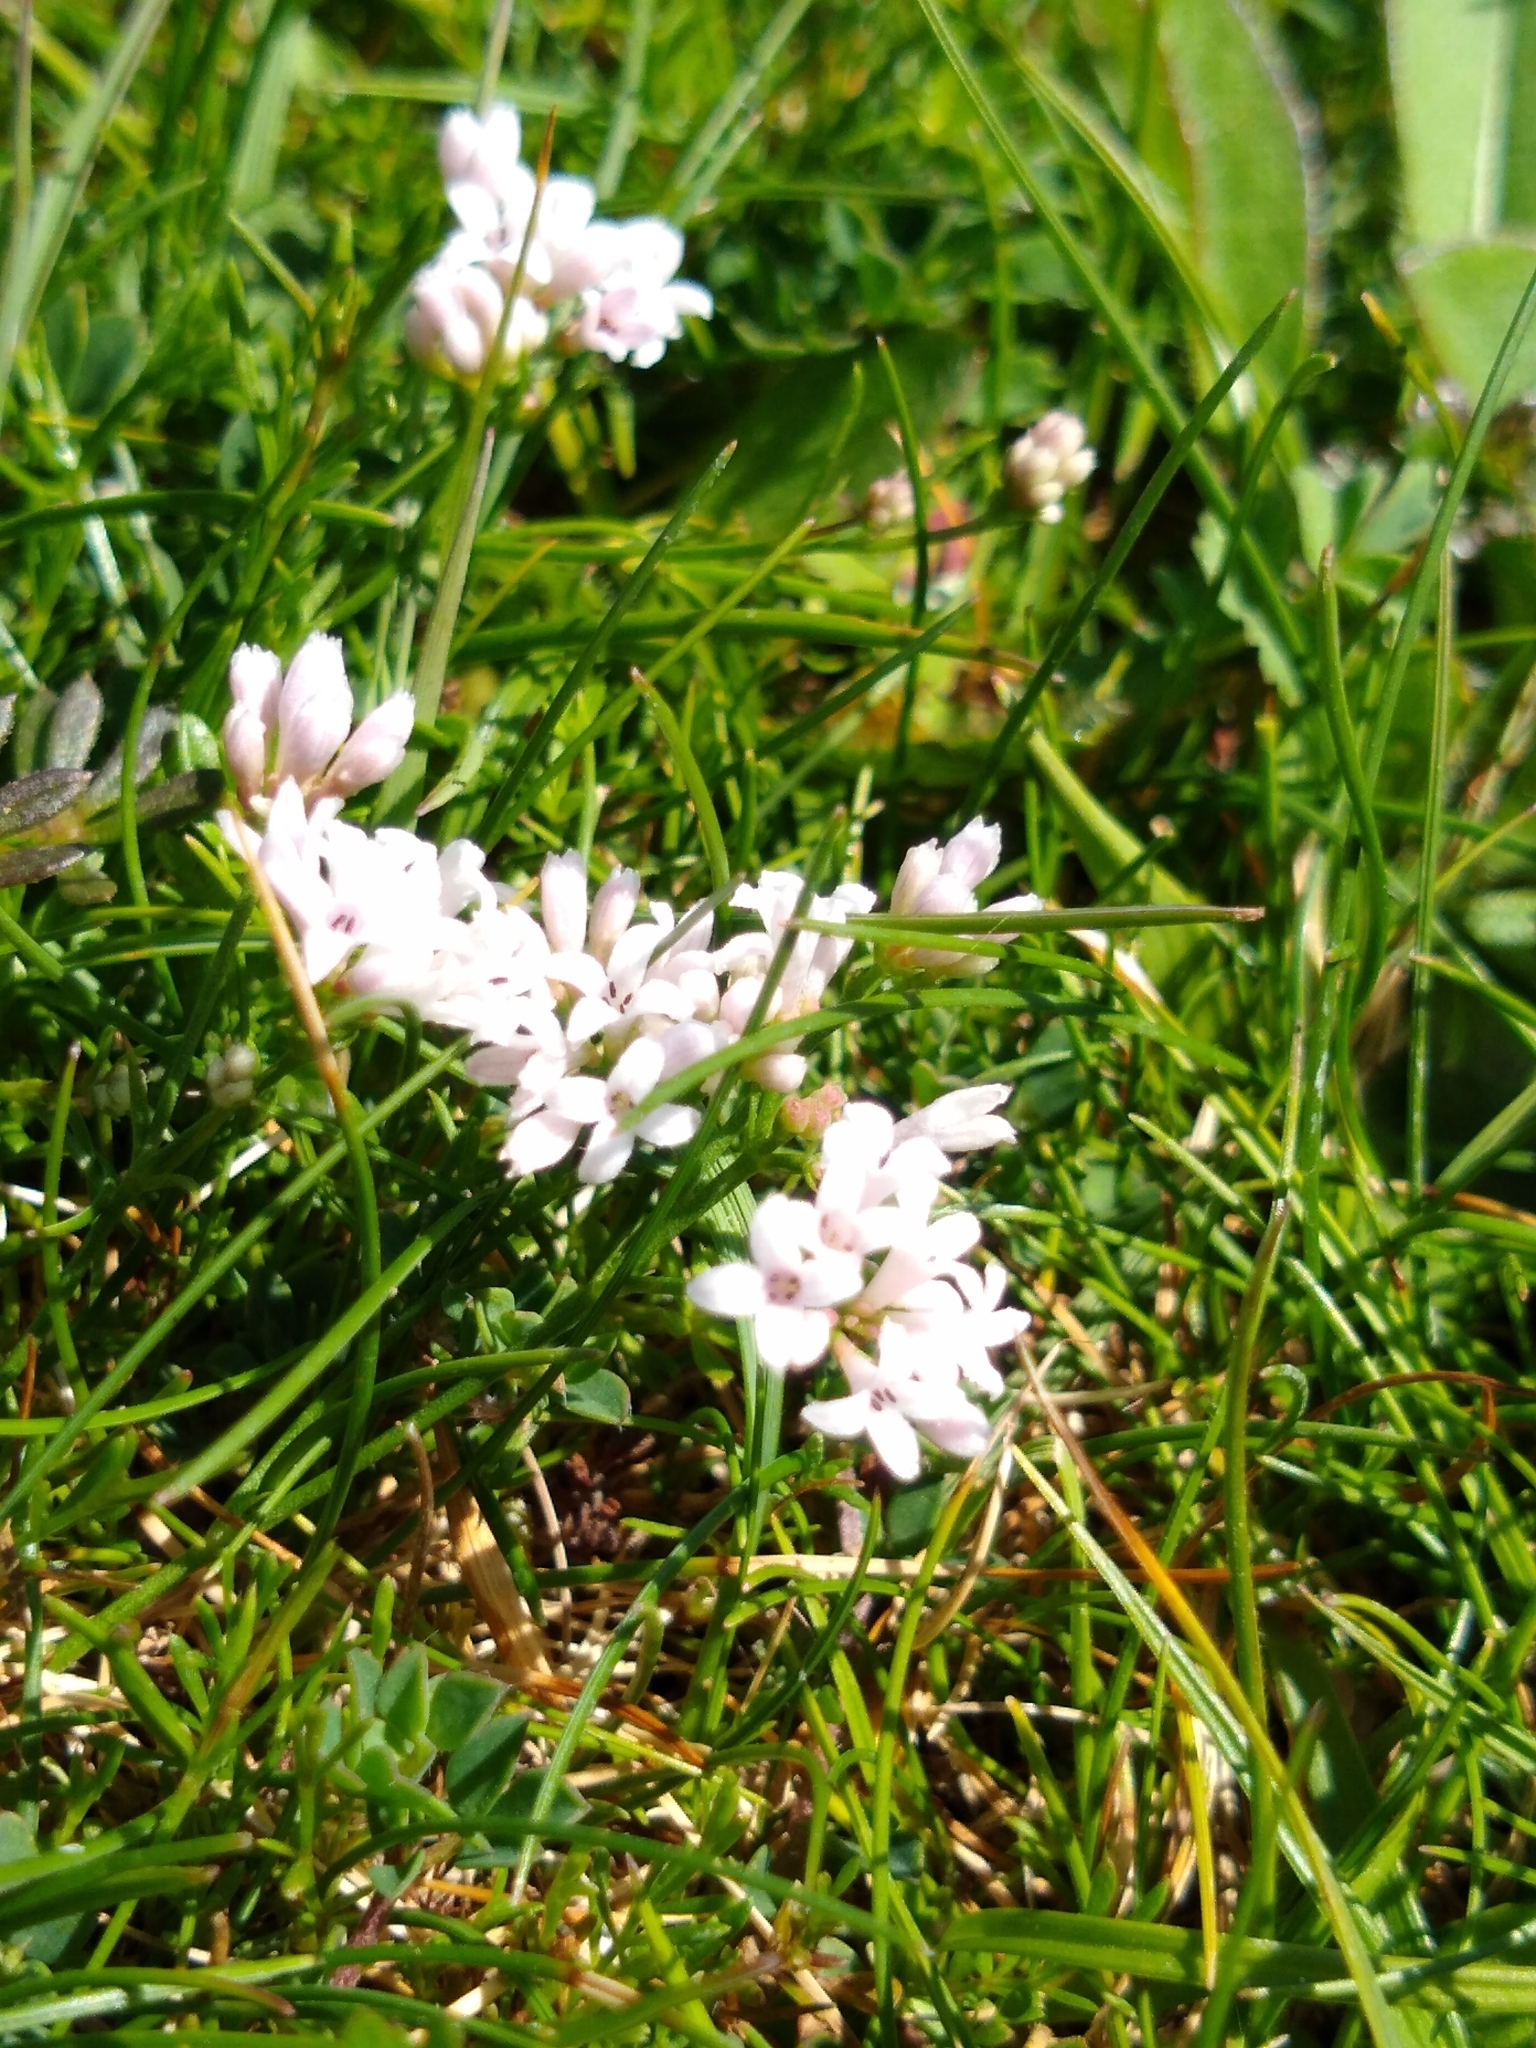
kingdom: Plantae
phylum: Tracheophyta
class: Magnoliopsida
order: Gentianales
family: Rubiaceae
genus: Cynanchica
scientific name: Cynanchica pyrenaica
